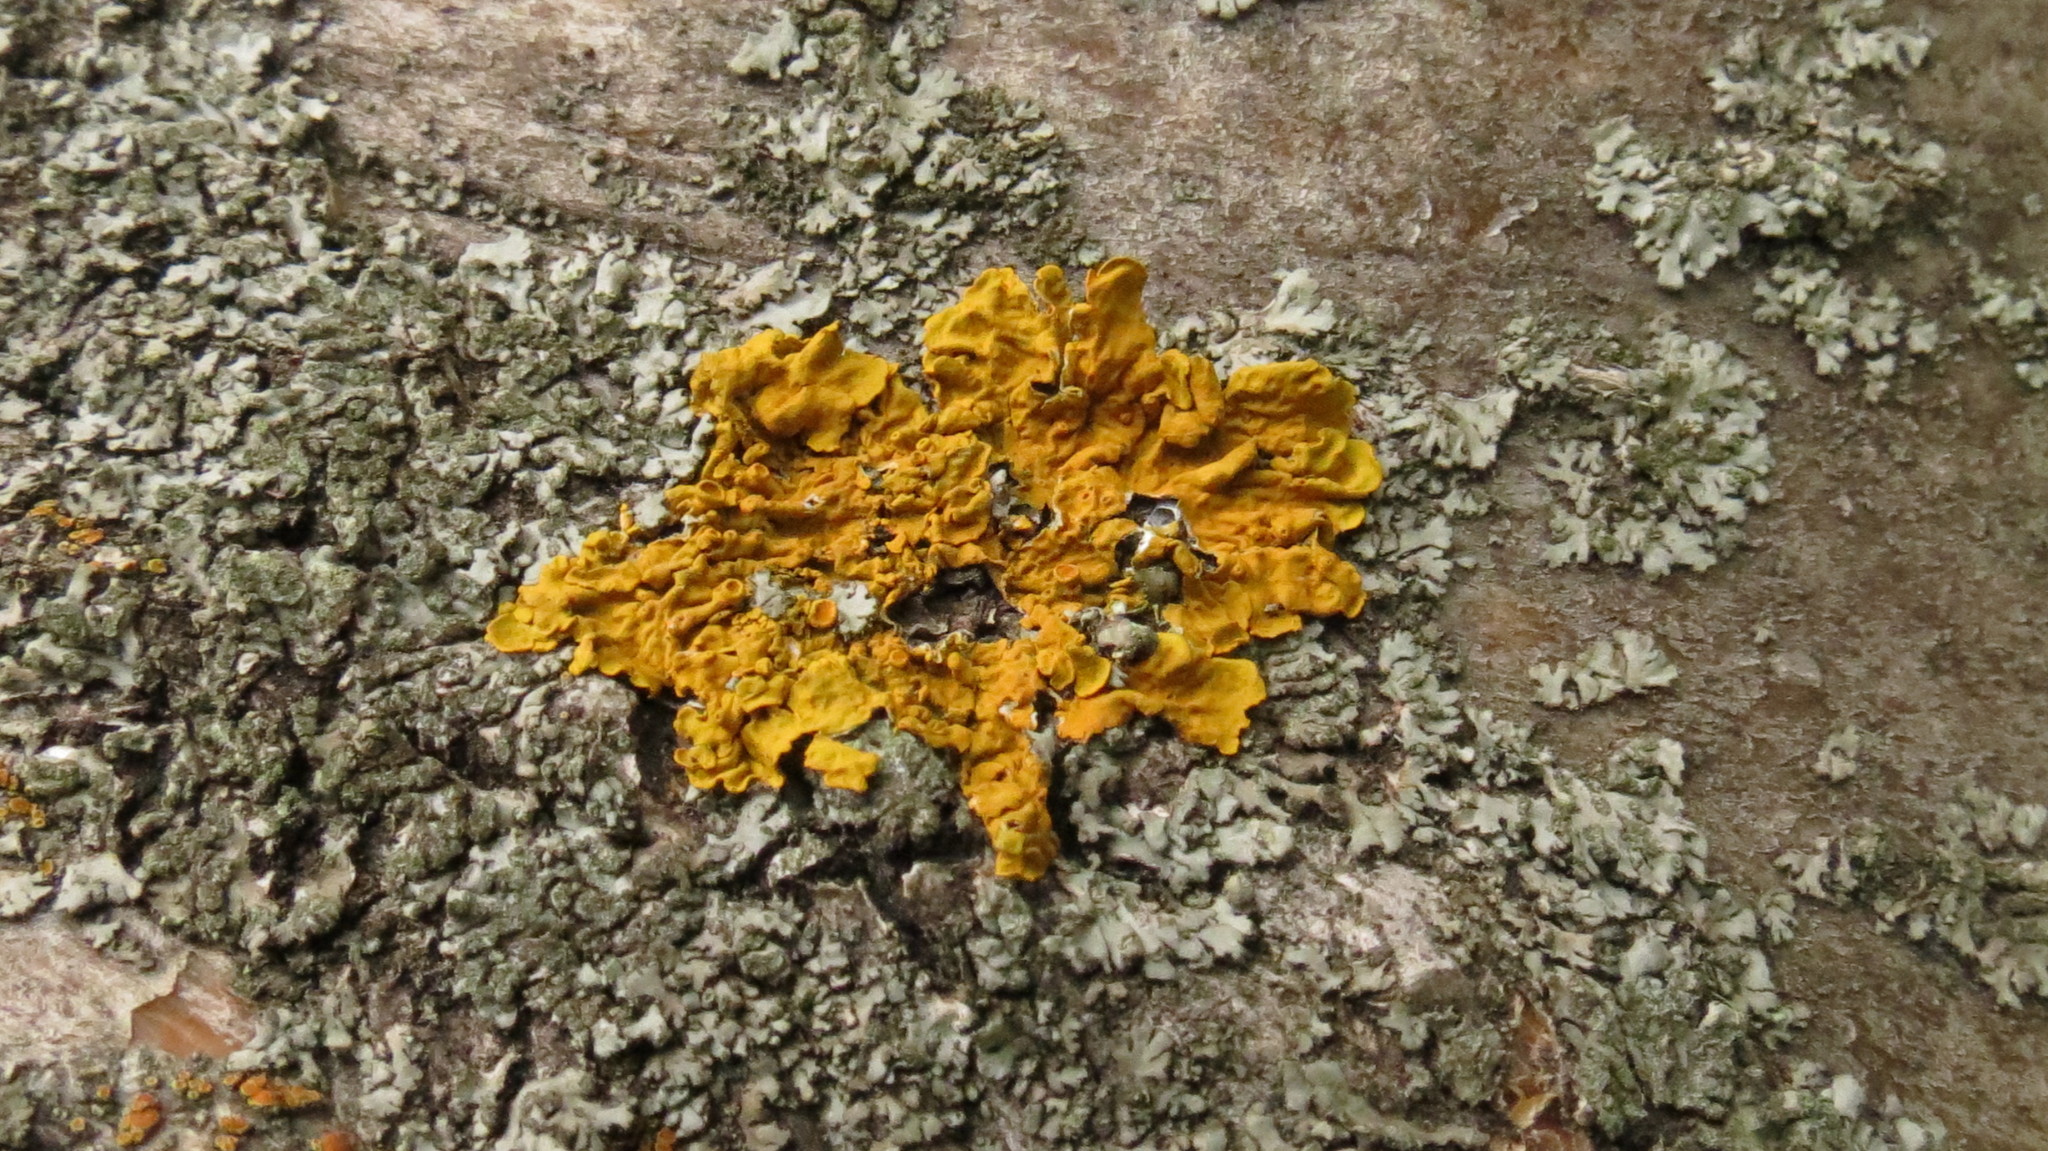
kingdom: Fungi
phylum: Ascomycota
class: Lecanoromycetes
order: Teloschistales
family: Teloschistaceae
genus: Xanthoria
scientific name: Xanthoria parietina
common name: Common orange lichen
